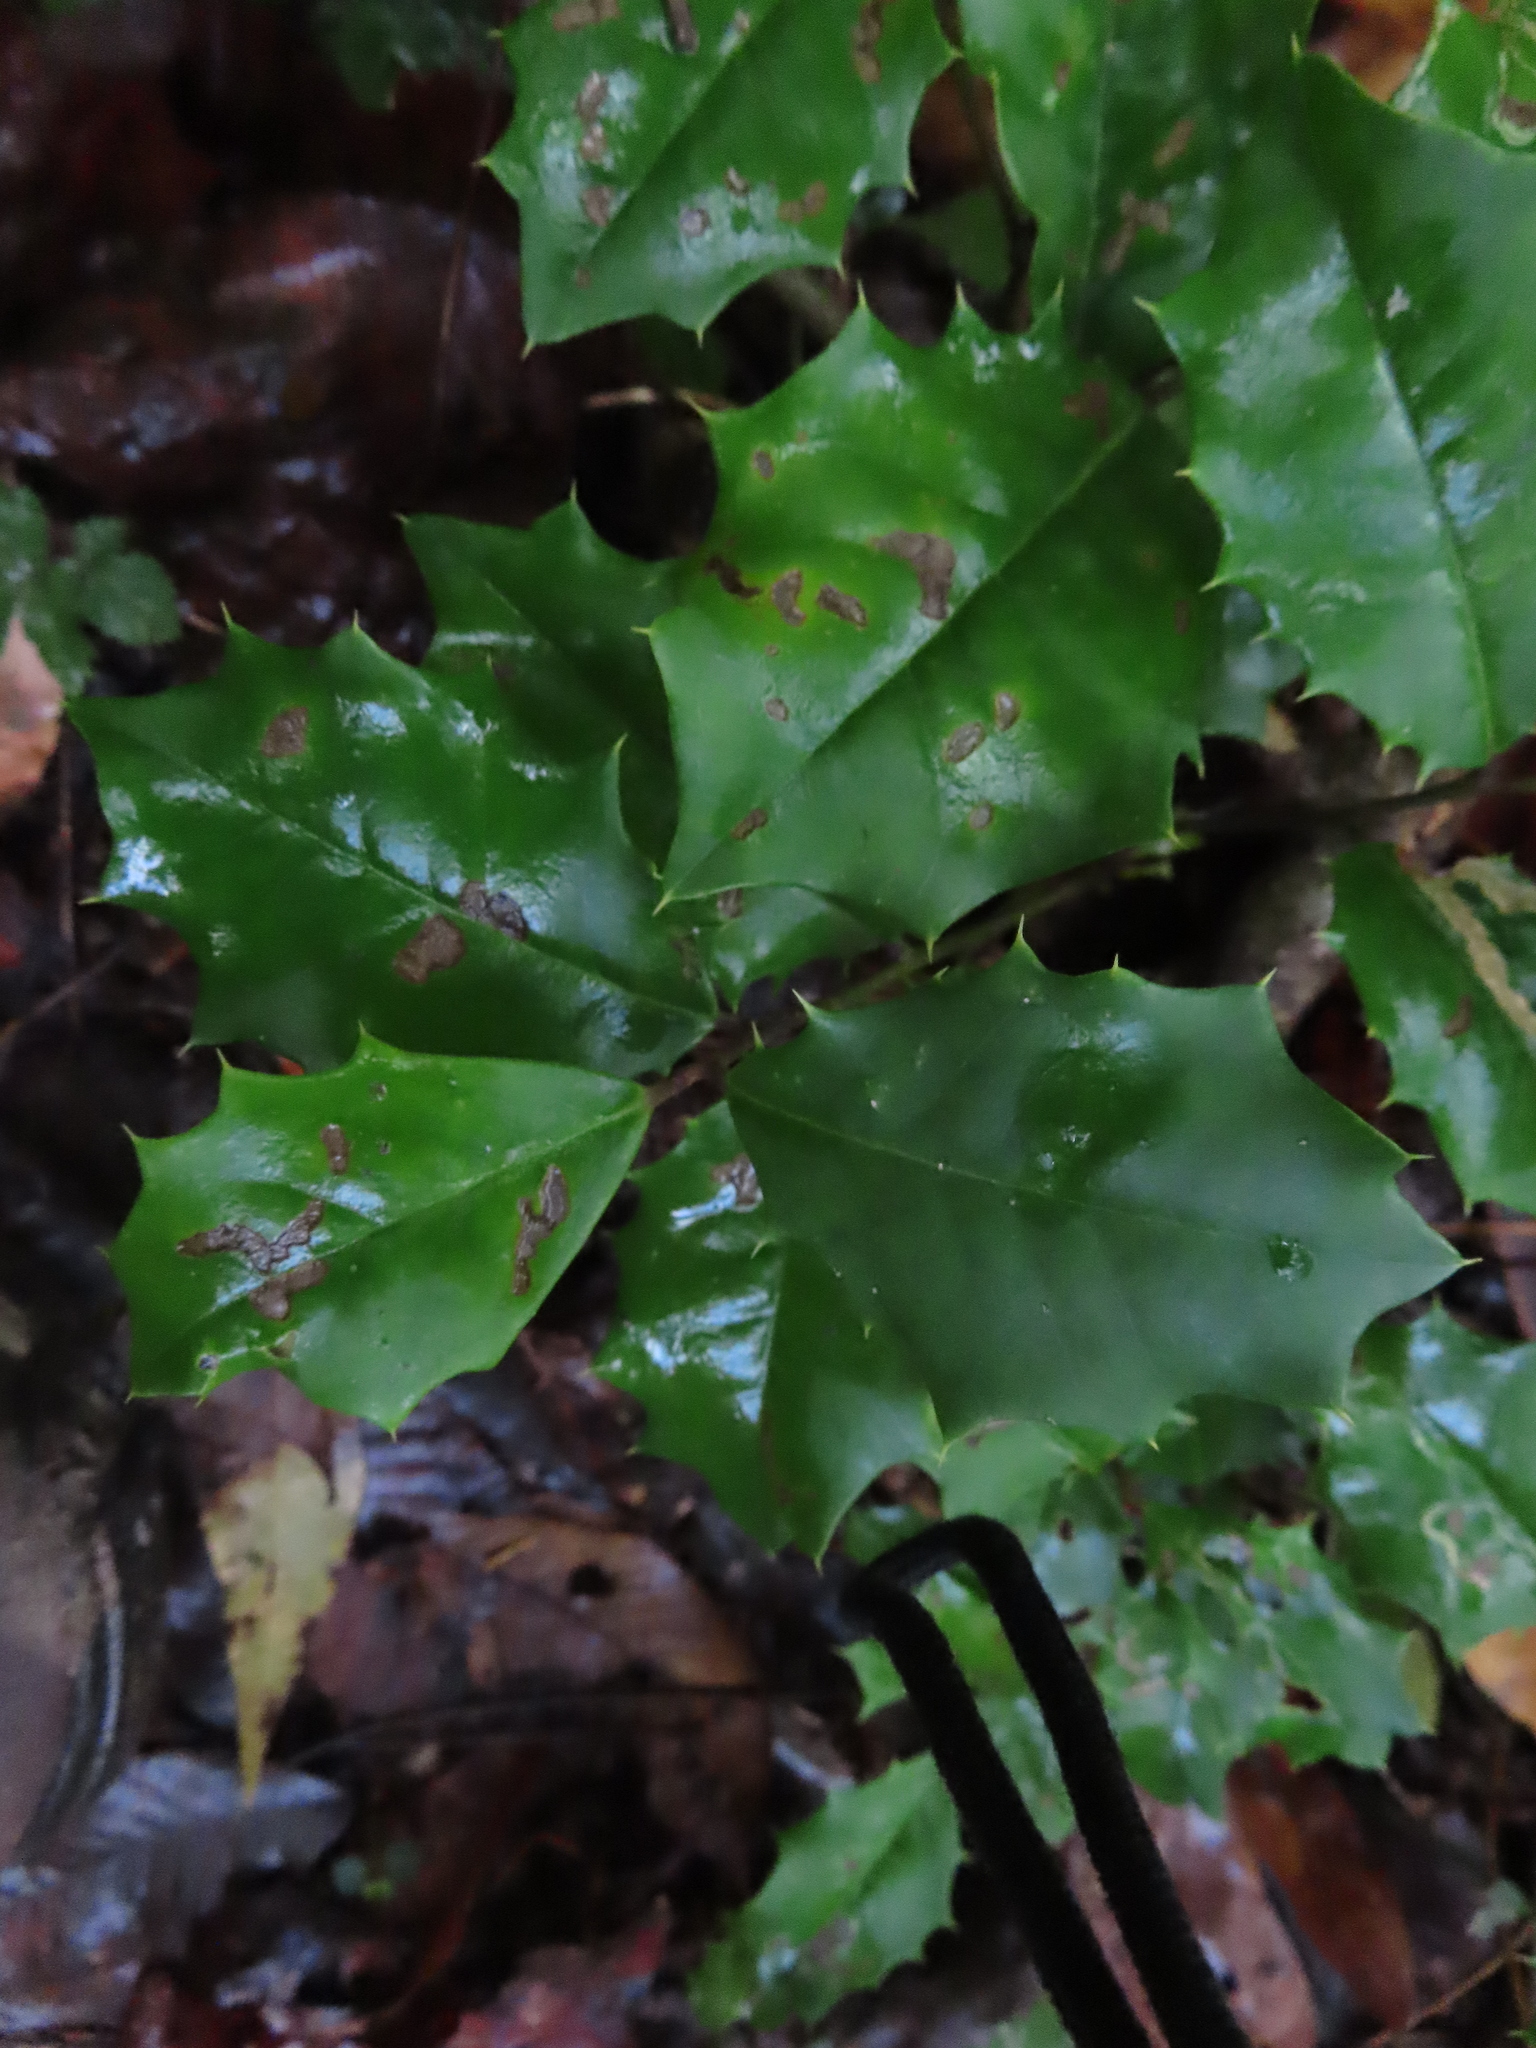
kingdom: Plantae
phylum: Tracheophyta
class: Magnoliopsida
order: Aquifoliales
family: Aquifoliaceae
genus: Ilex
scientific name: Ilex opaca
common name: American holly
